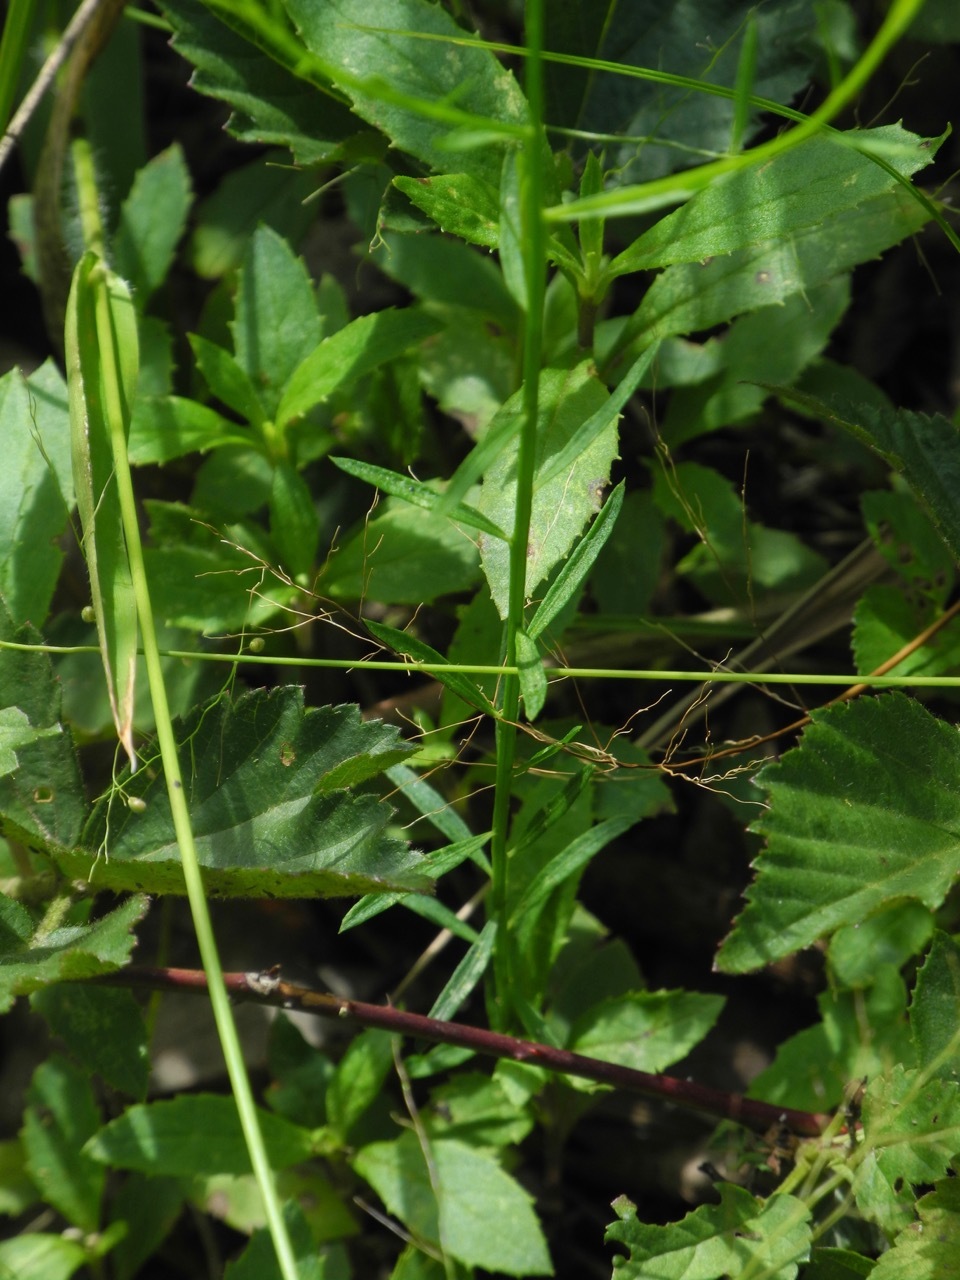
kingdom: Plantae
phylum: Tracheophyta
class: Magnoliopsida
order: Fabales
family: Polygalaceae
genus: Polygala
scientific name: Polygala curtissii
